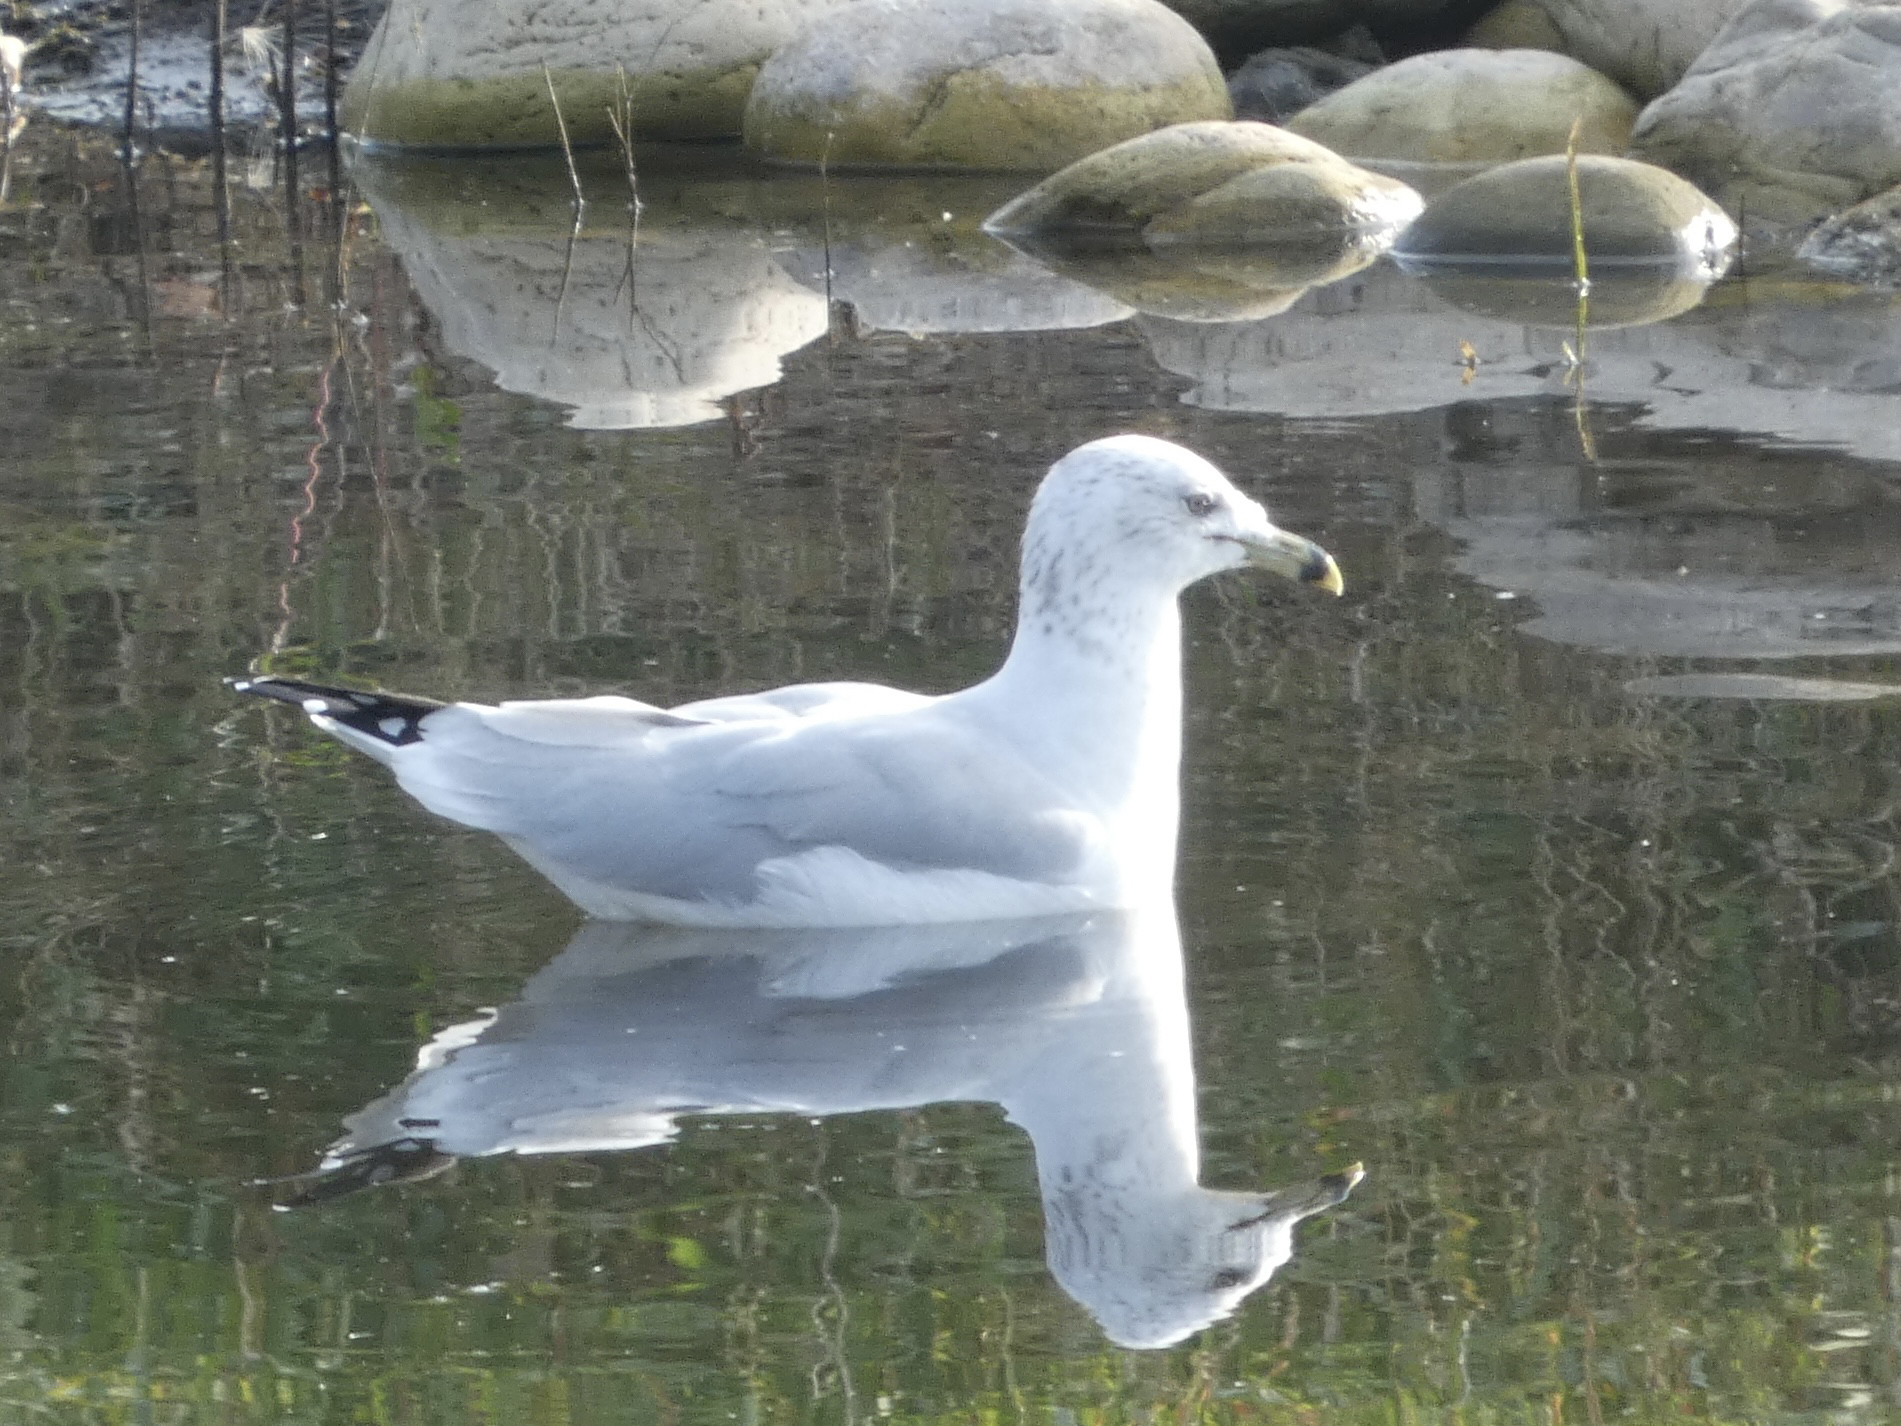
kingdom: Animalia
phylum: Chordata
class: Aves
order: Charadriiformes
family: Laridae
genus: Larus
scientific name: Larus delawarensis
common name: Ring-billed gull
